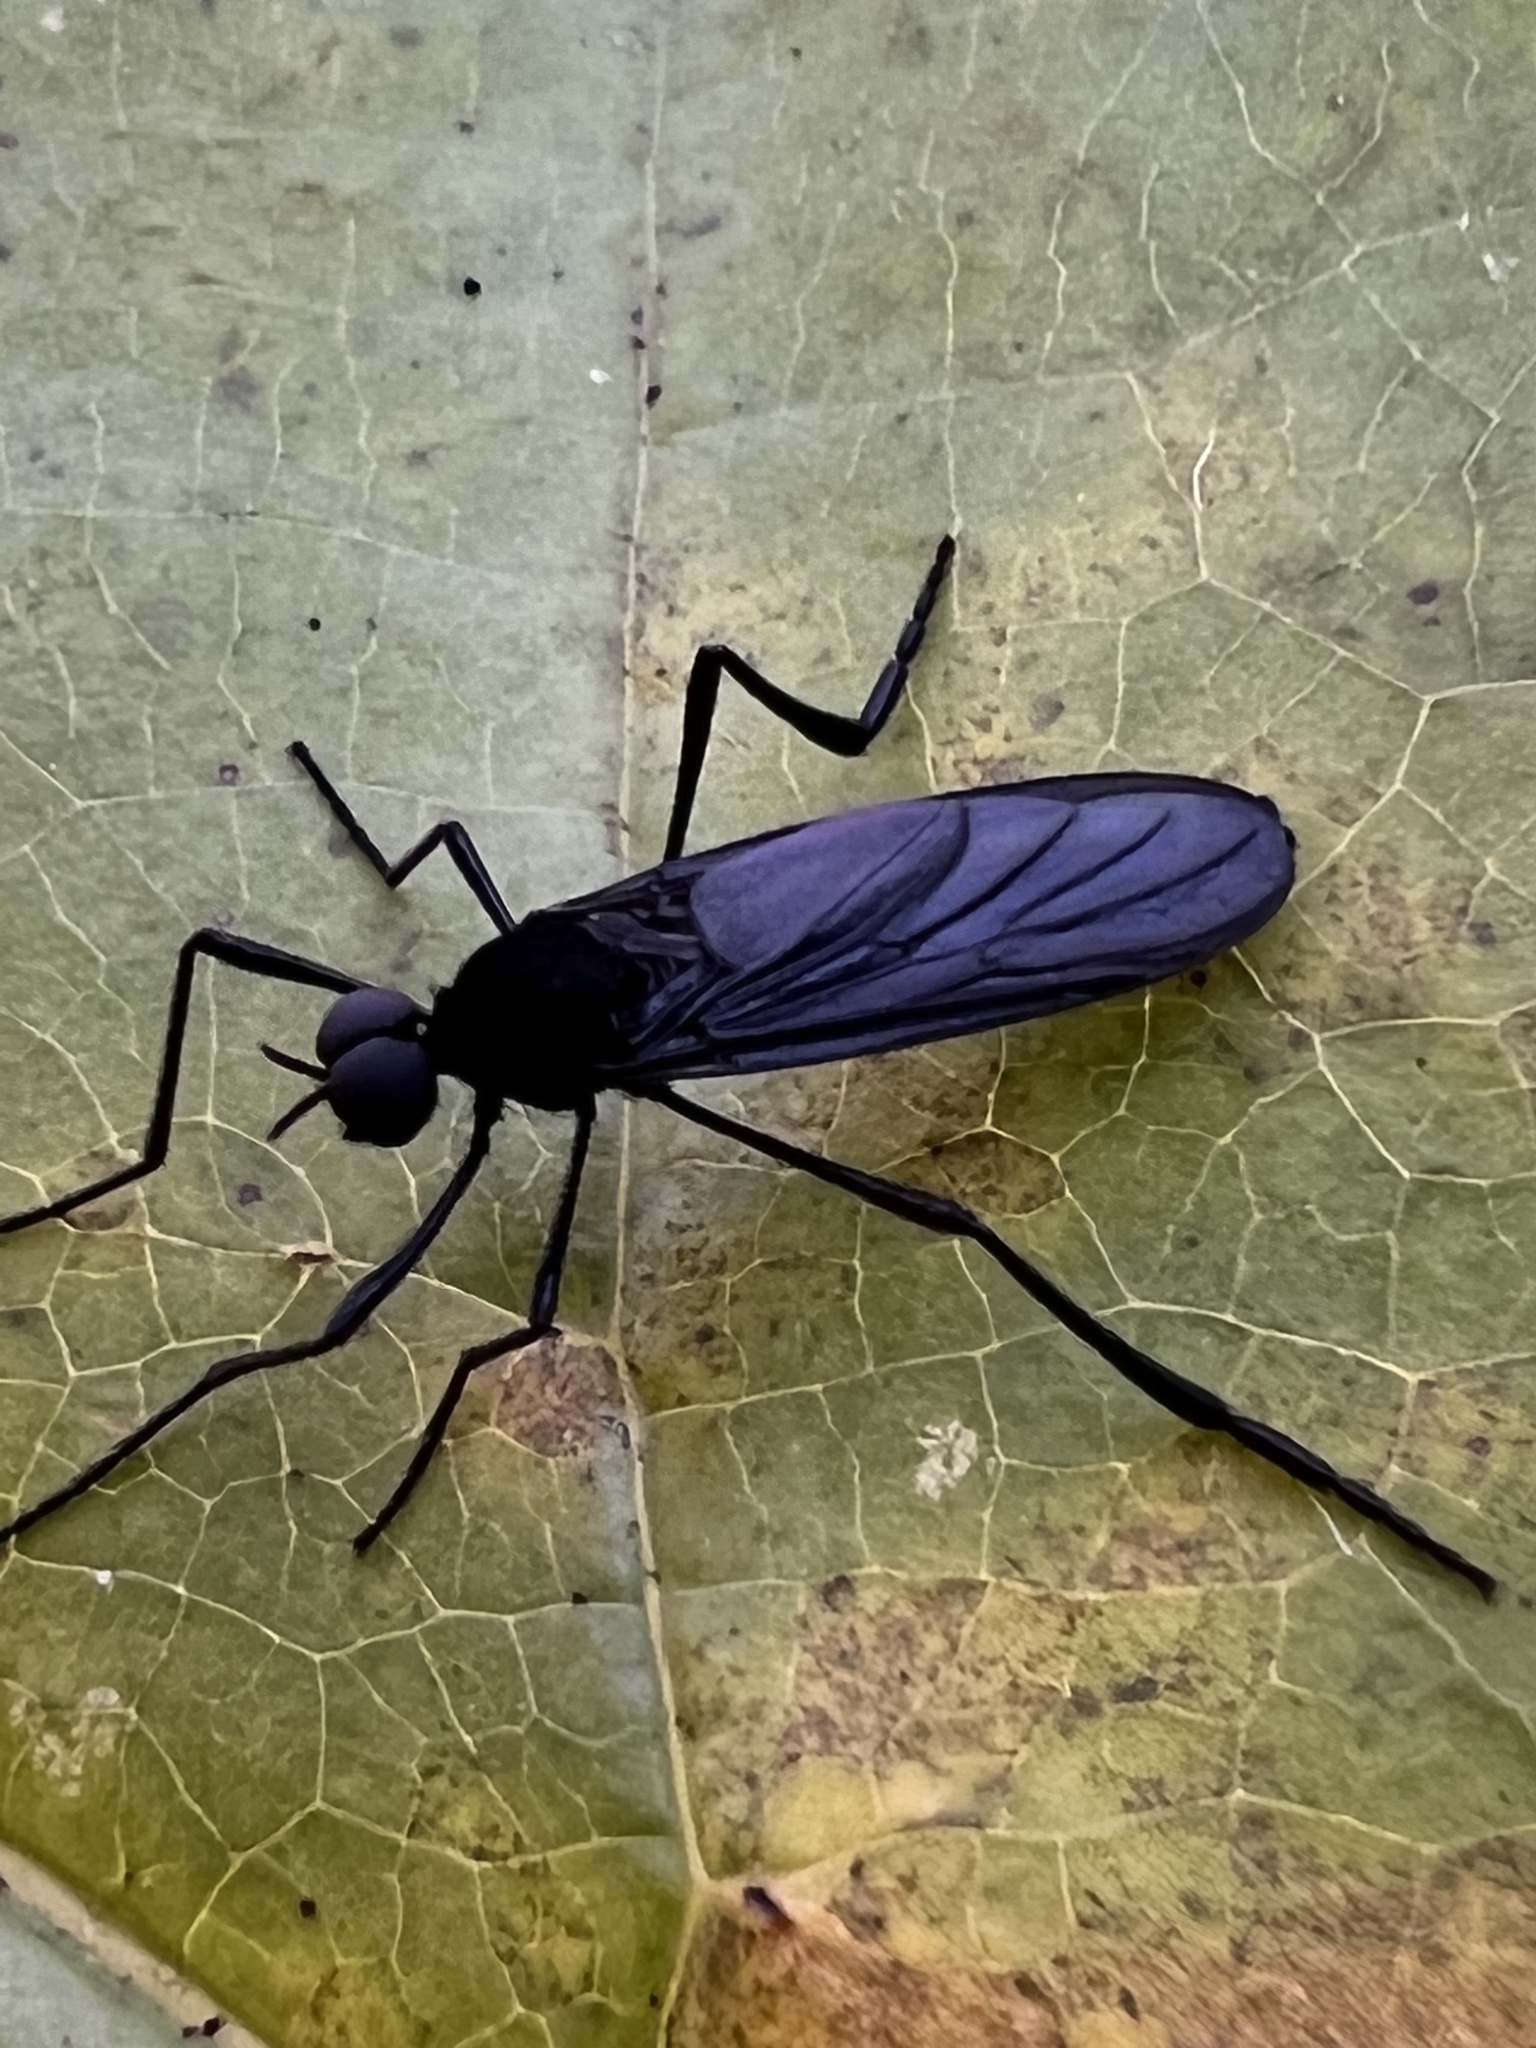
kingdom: Animalia
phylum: Arthropoda
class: Insecta
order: Diptera
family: Bibionidae
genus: Penthetria
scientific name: Penthetria heteroptera
